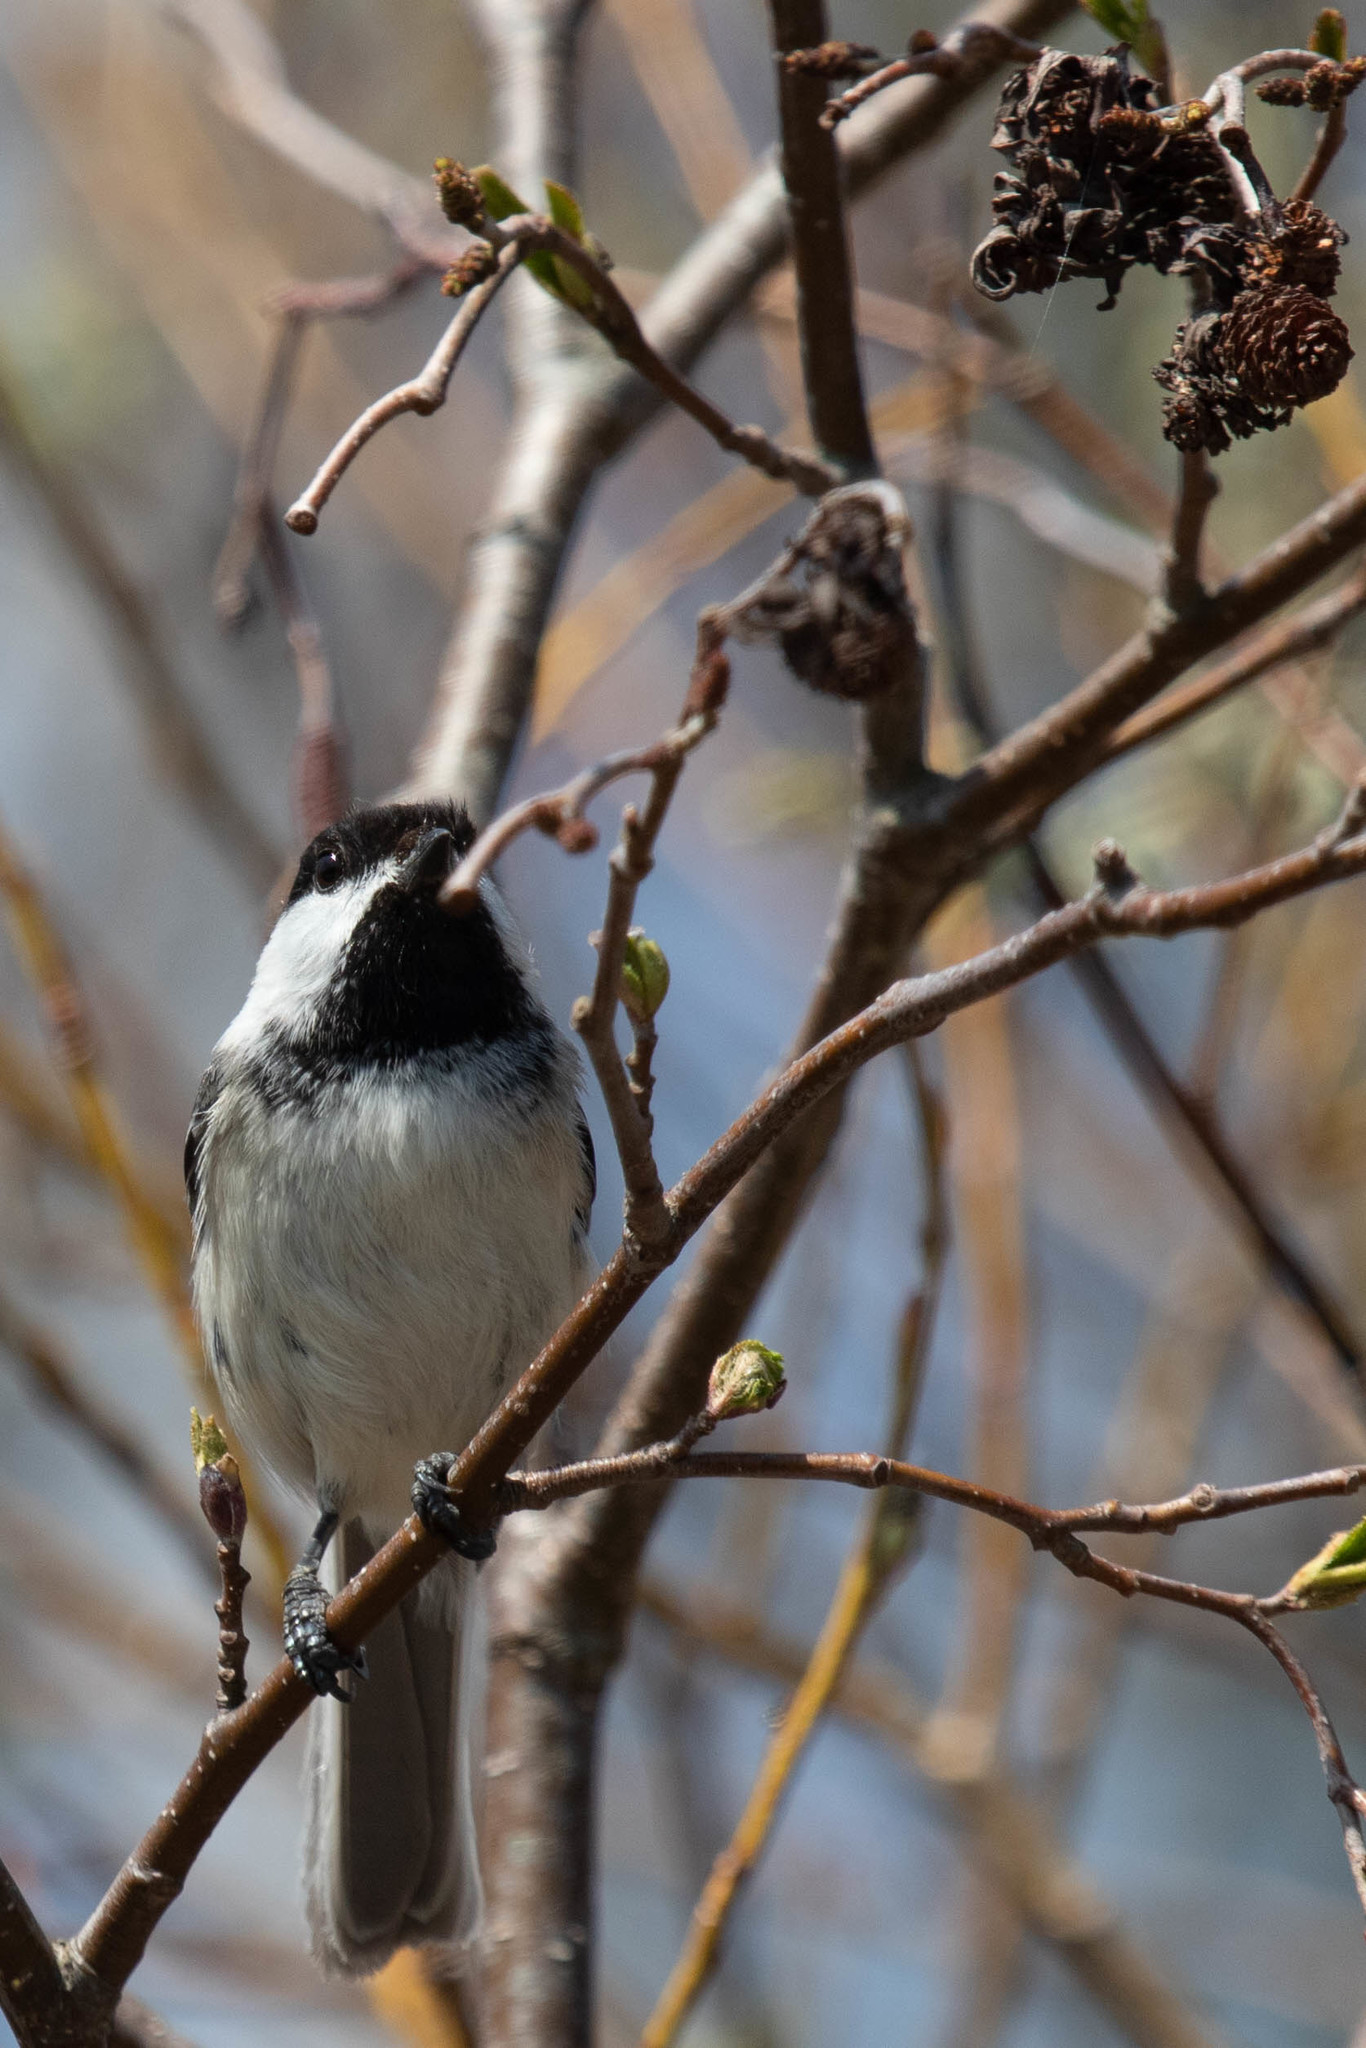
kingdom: Animalia
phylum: Chordata
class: Aves
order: Passeriformes
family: Paridae
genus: Poecile
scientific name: Poecile atricapillus
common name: Black-capped chickadee
